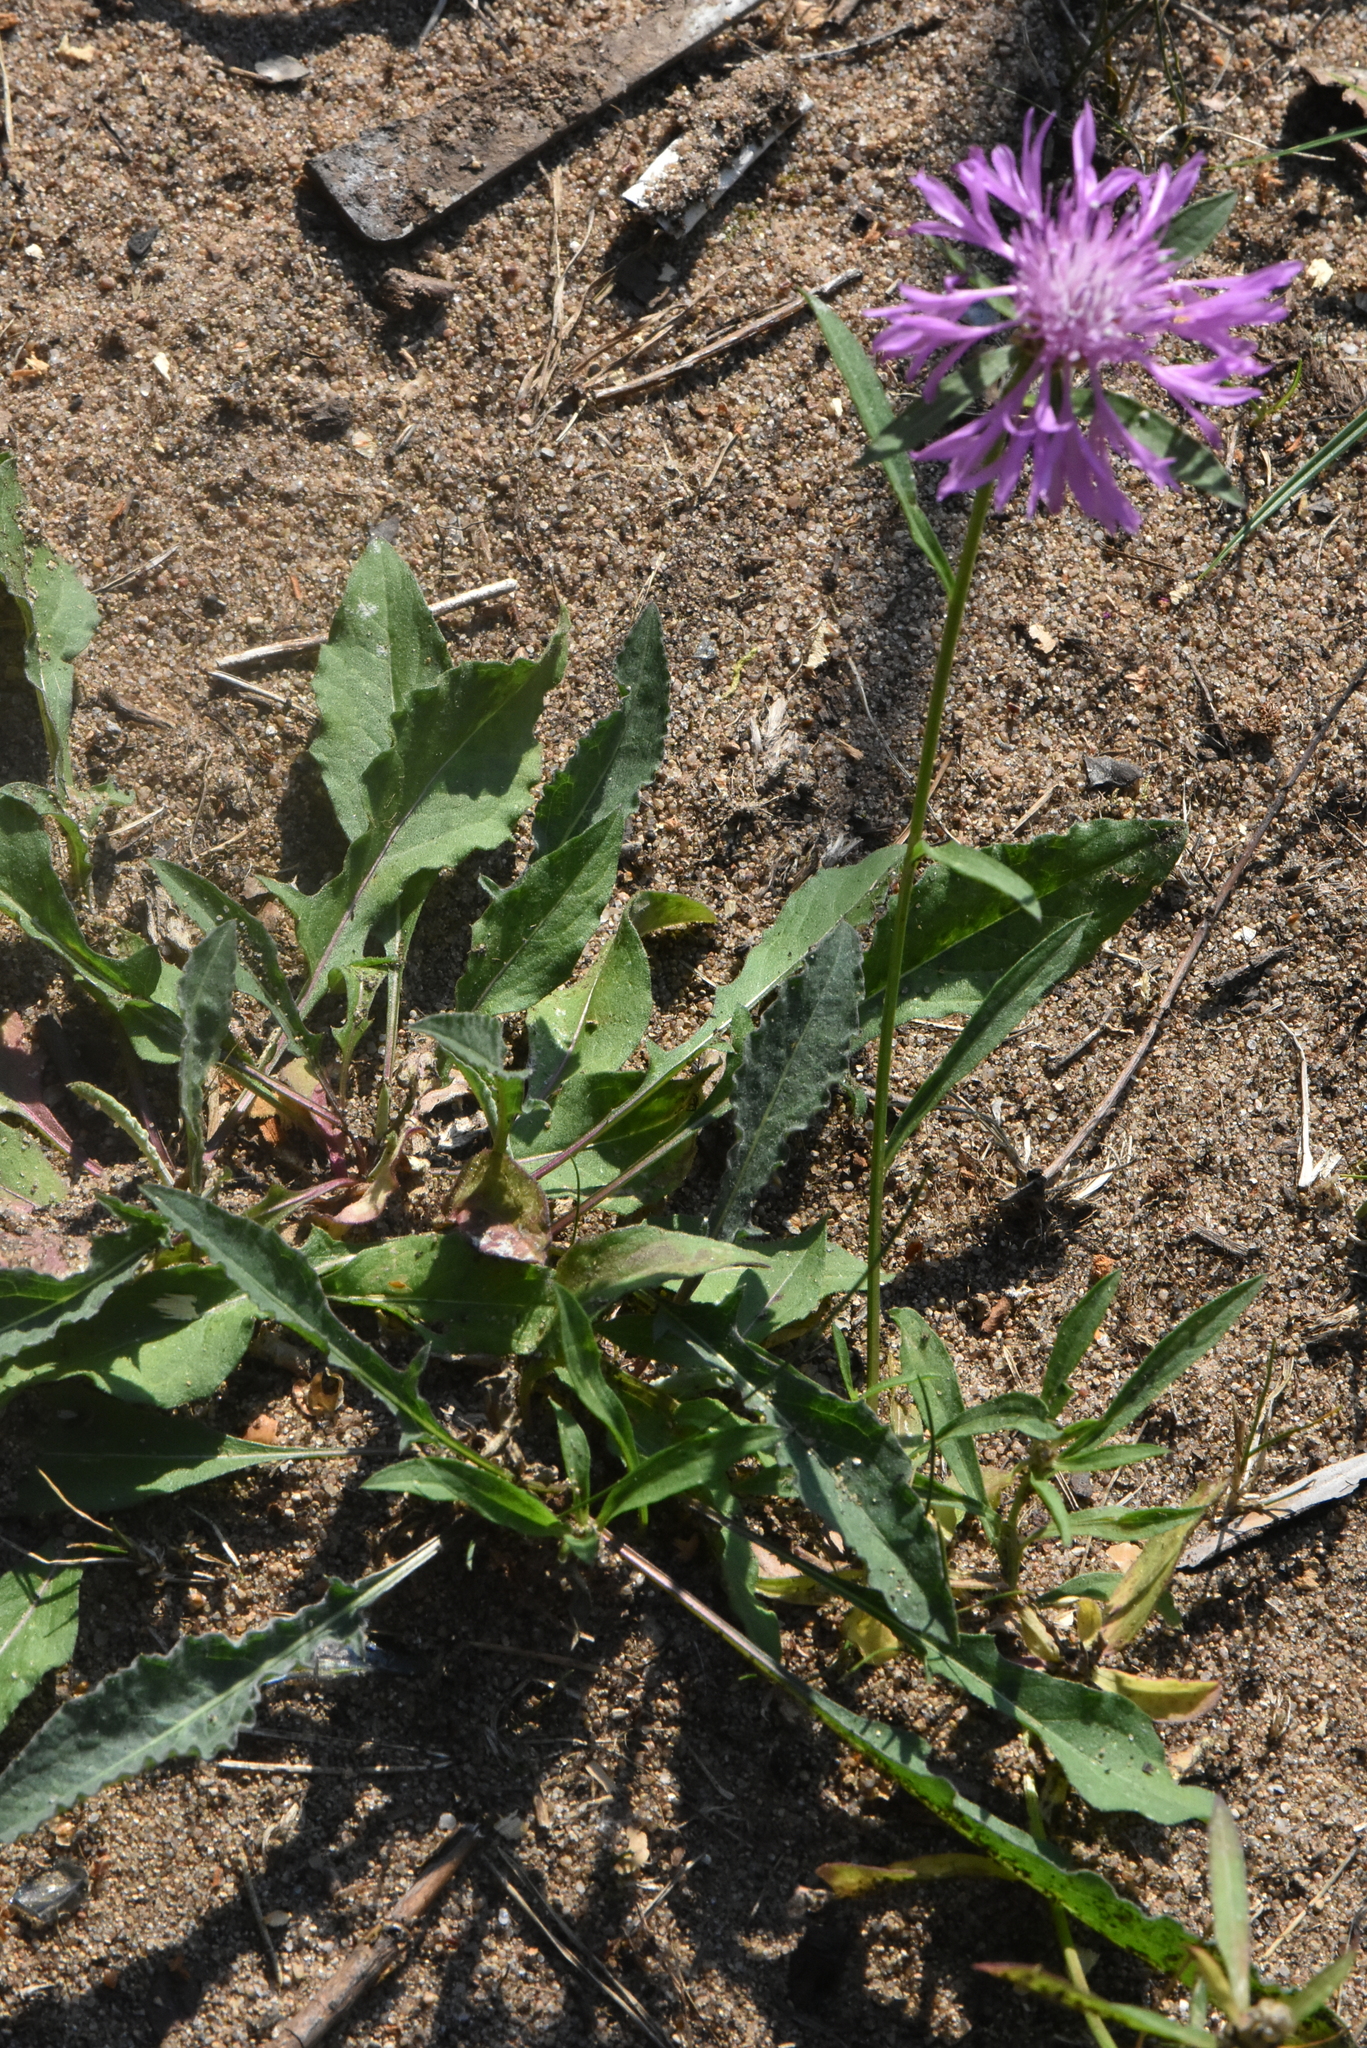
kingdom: Plantae
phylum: Tracheophyta
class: Magnoliopsida
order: Asterales
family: Asteraceae
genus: Centaurea
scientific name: Centaurea jacea
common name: Brown knapweed
